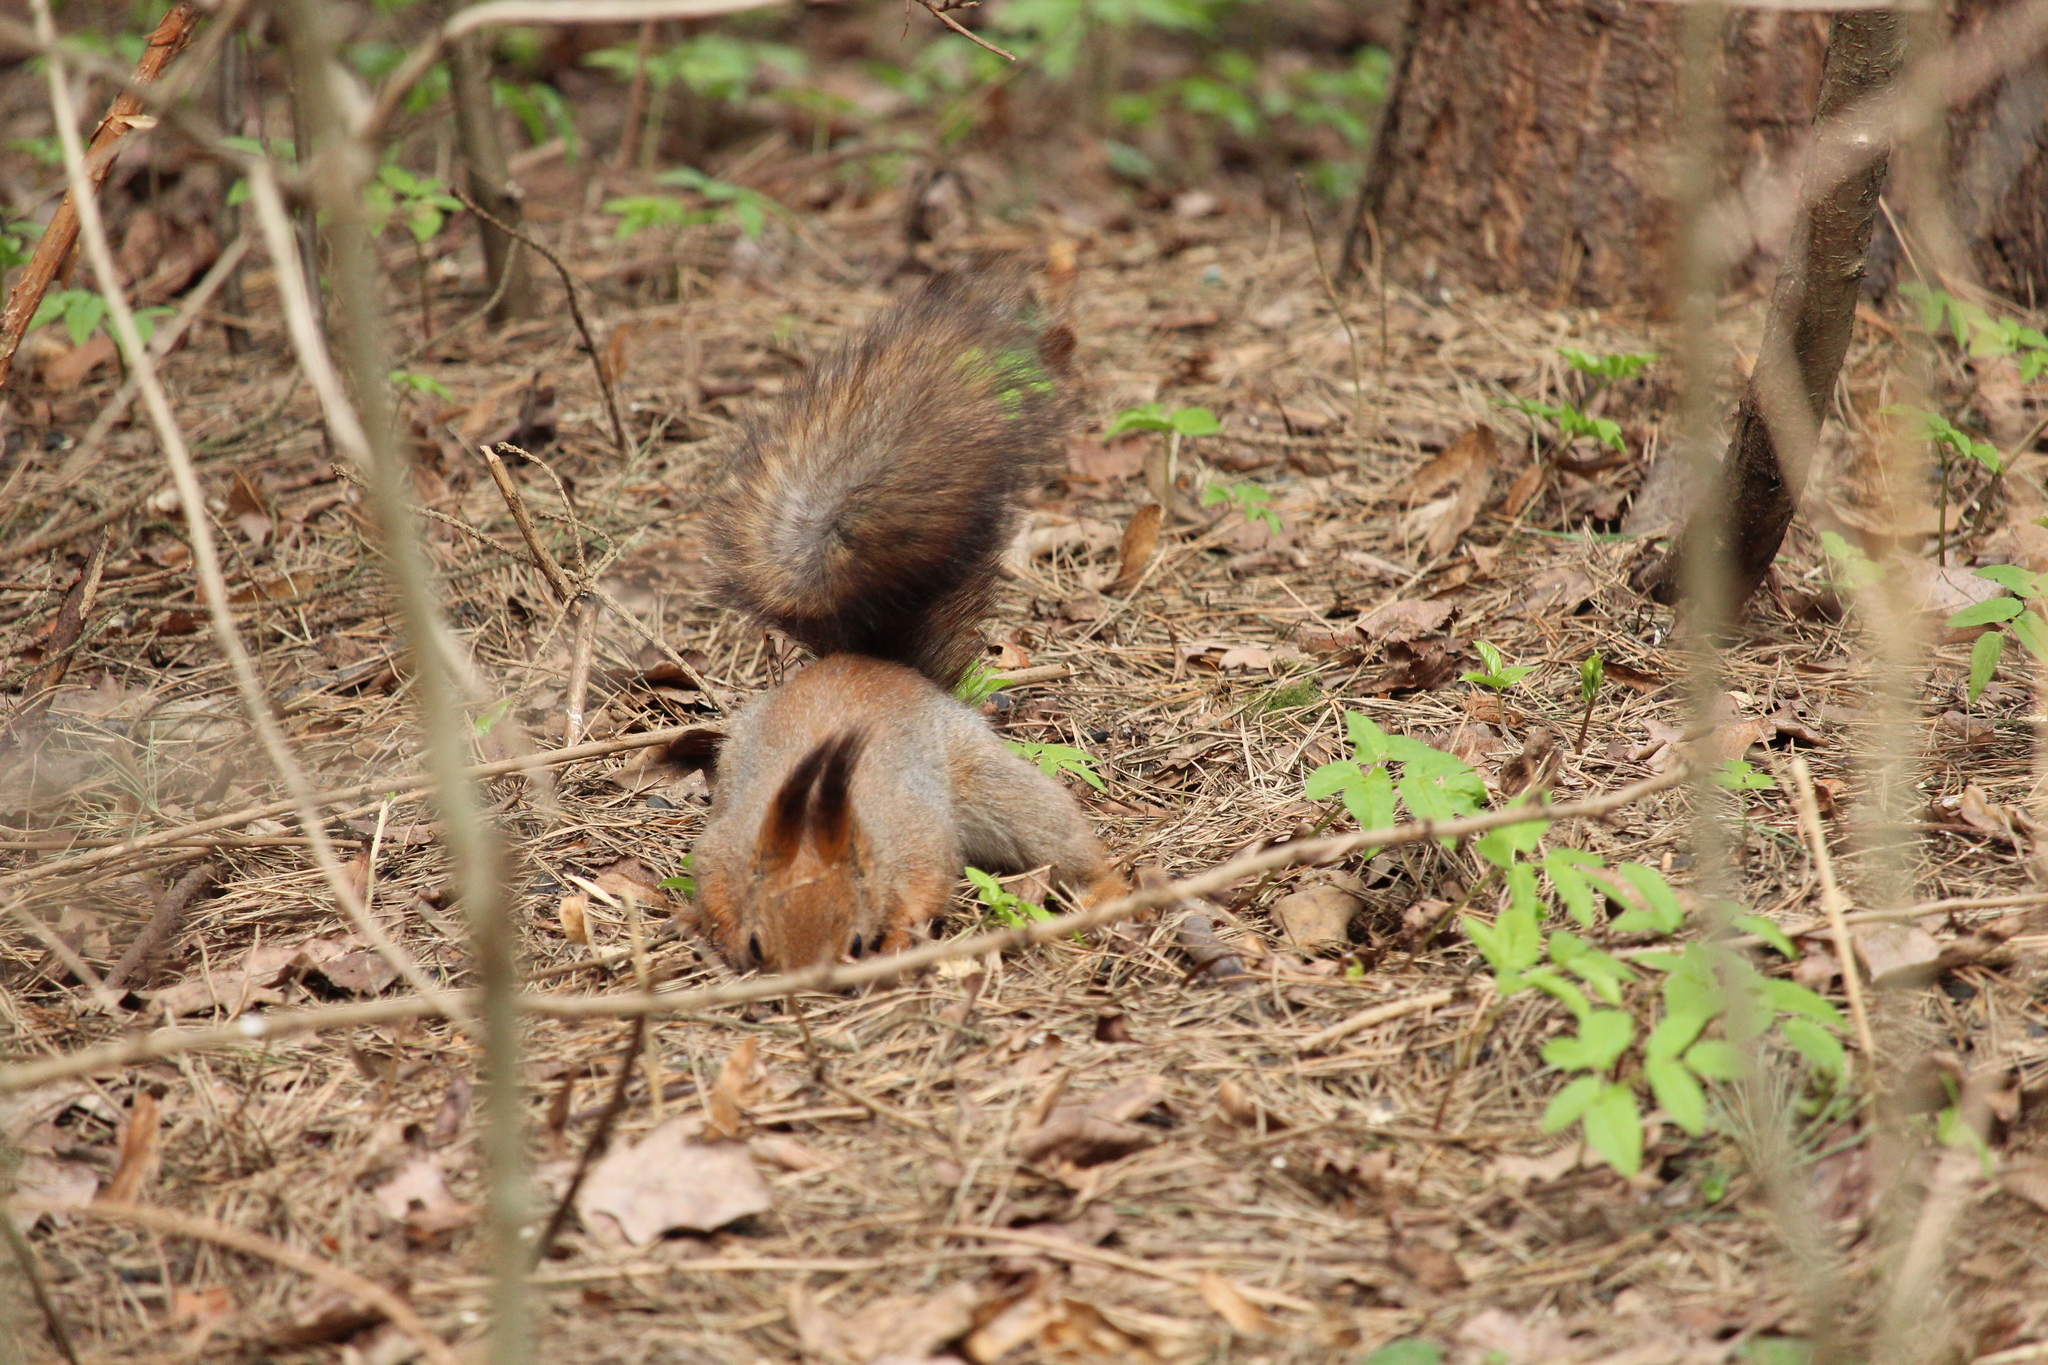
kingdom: Animalia
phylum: Chordata
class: Mammalia
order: Rodentia
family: Sciuridae
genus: Sciurus
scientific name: Sciurus vulgaris
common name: Eurasian red squirrel
